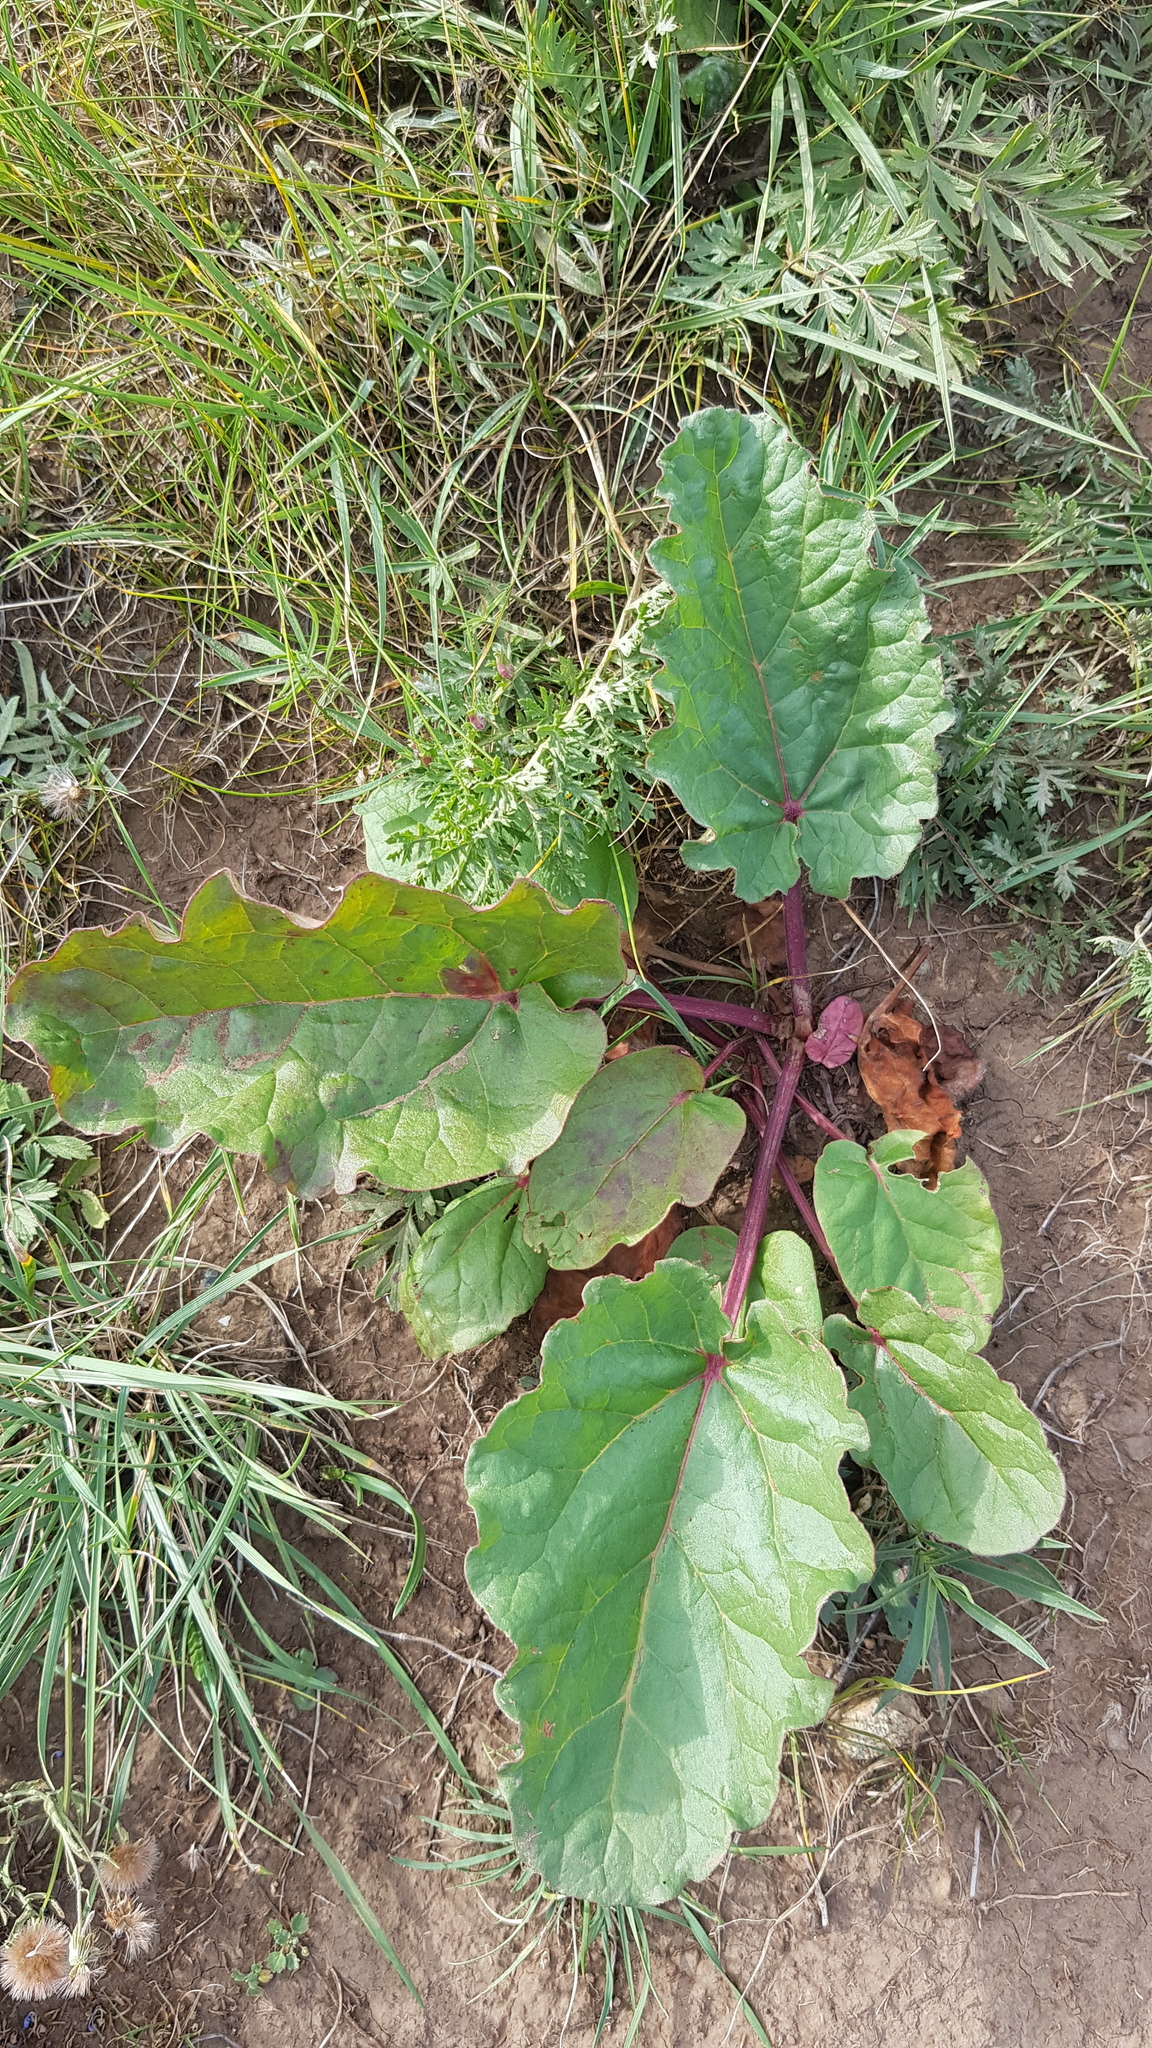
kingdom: Plantae
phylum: Tracheophyta
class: Magnoliopsida
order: Caryophyllales
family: Polygonaceae
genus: Rheum
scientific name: Rheum rhabarbarum
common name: Garden rhubarb
